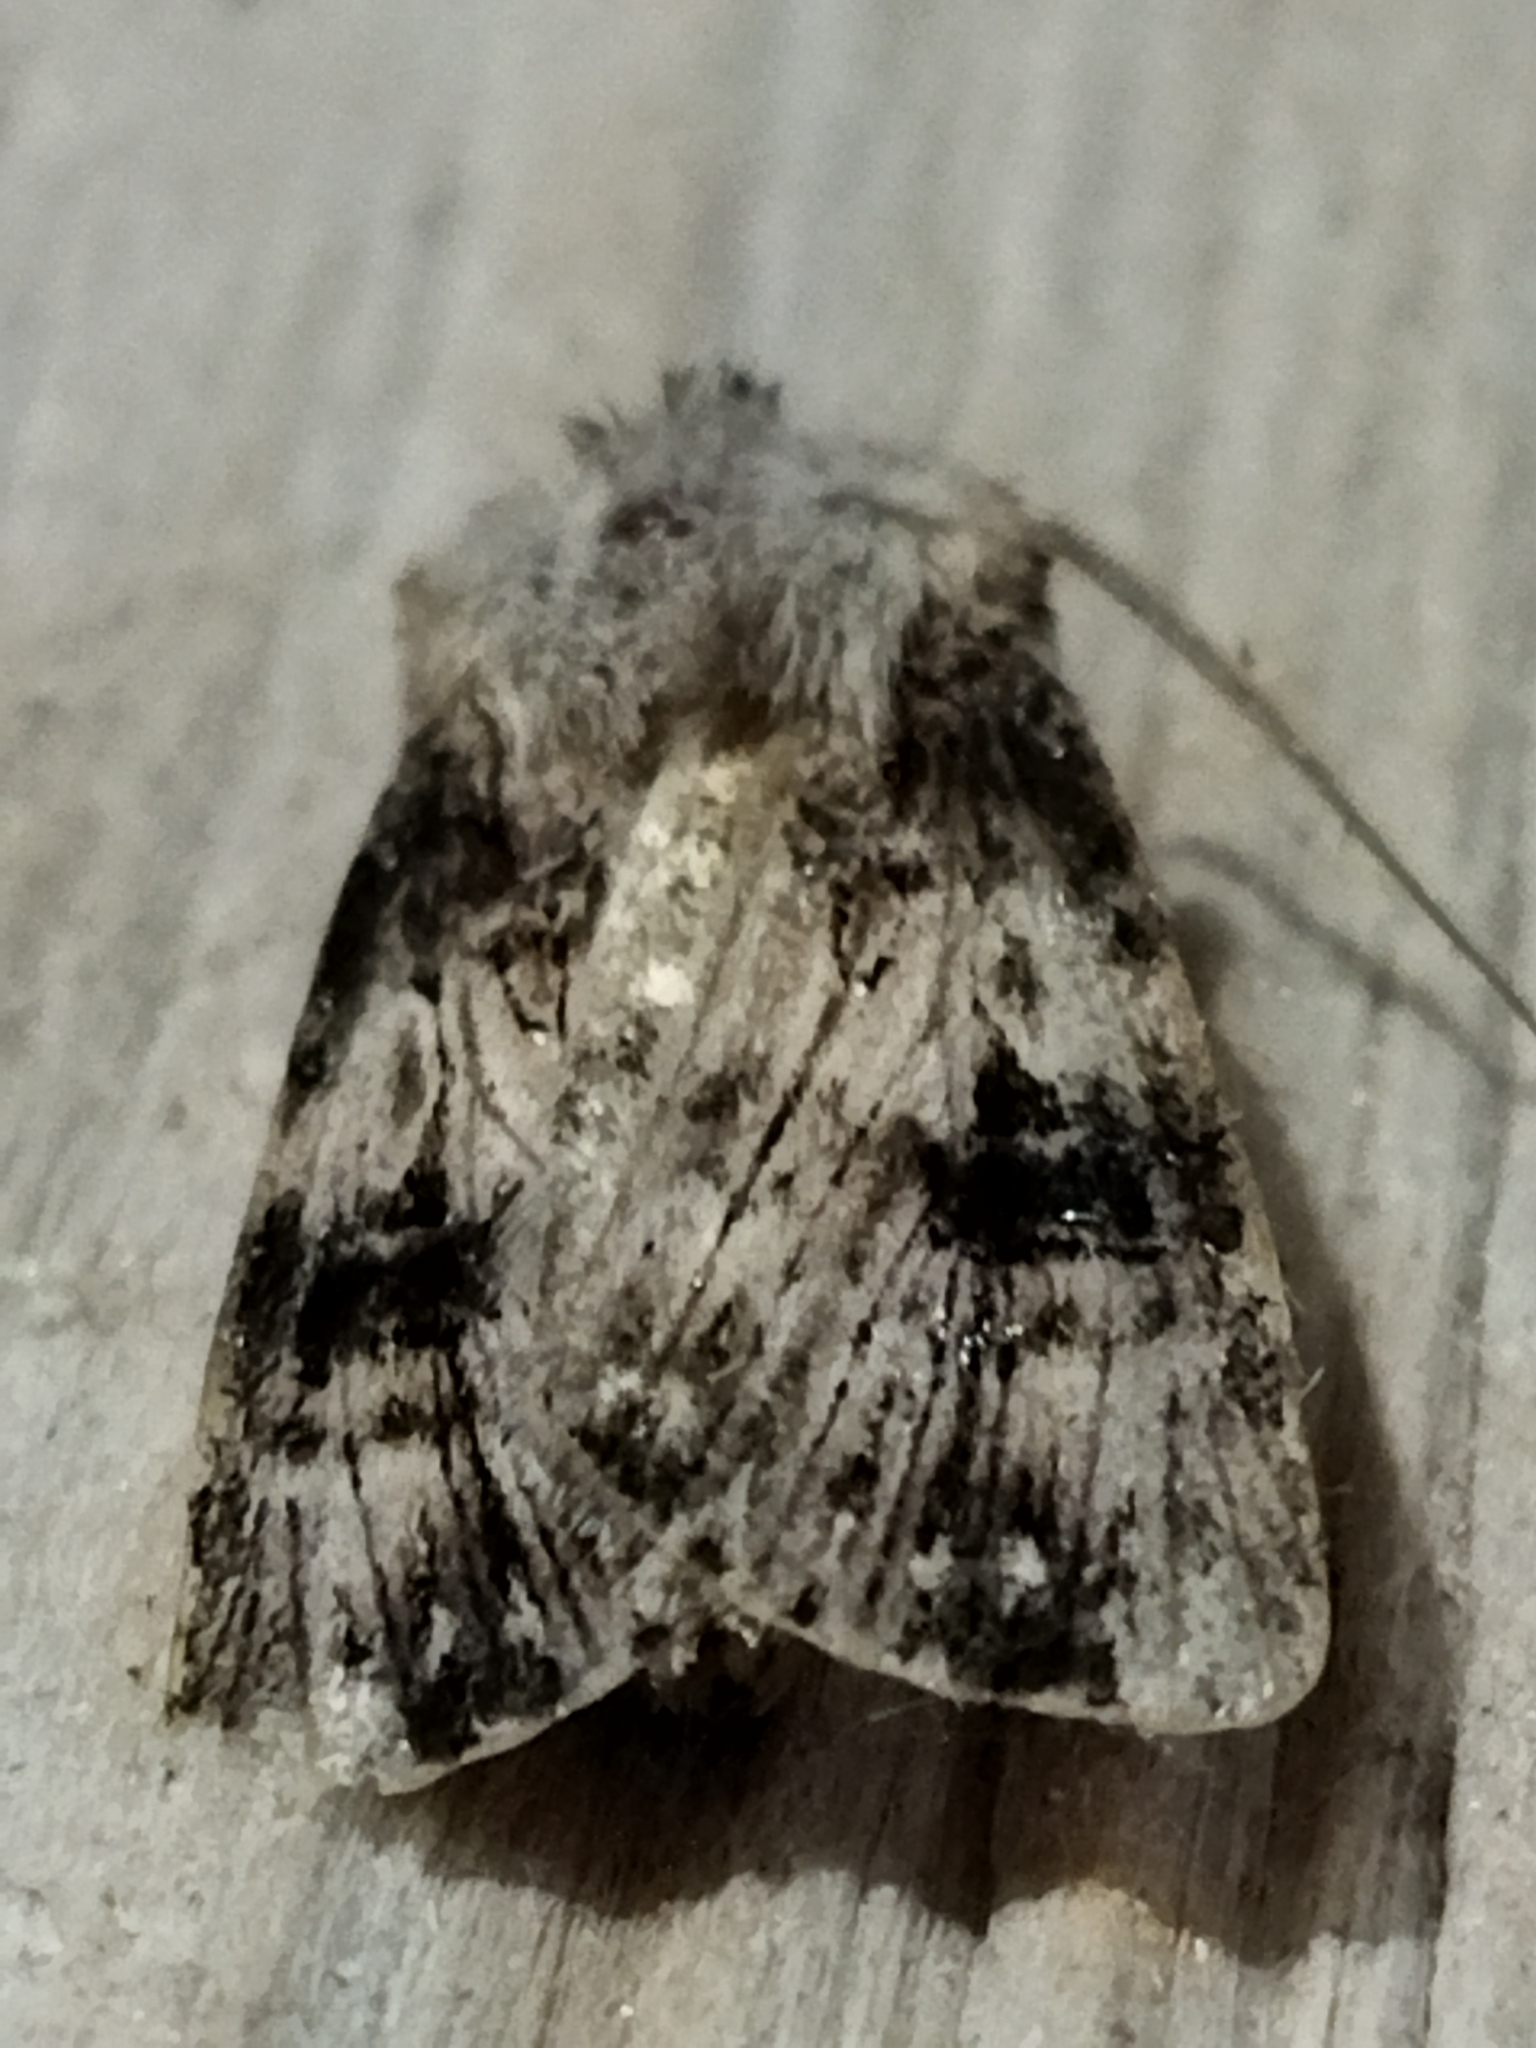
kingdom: Animalia
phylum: Arthropoda
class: Insecta
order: Lepidoptera
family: Noctuidae
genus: Agrotis
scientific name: Agrotis puta
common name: Shuttle-shaped dart
